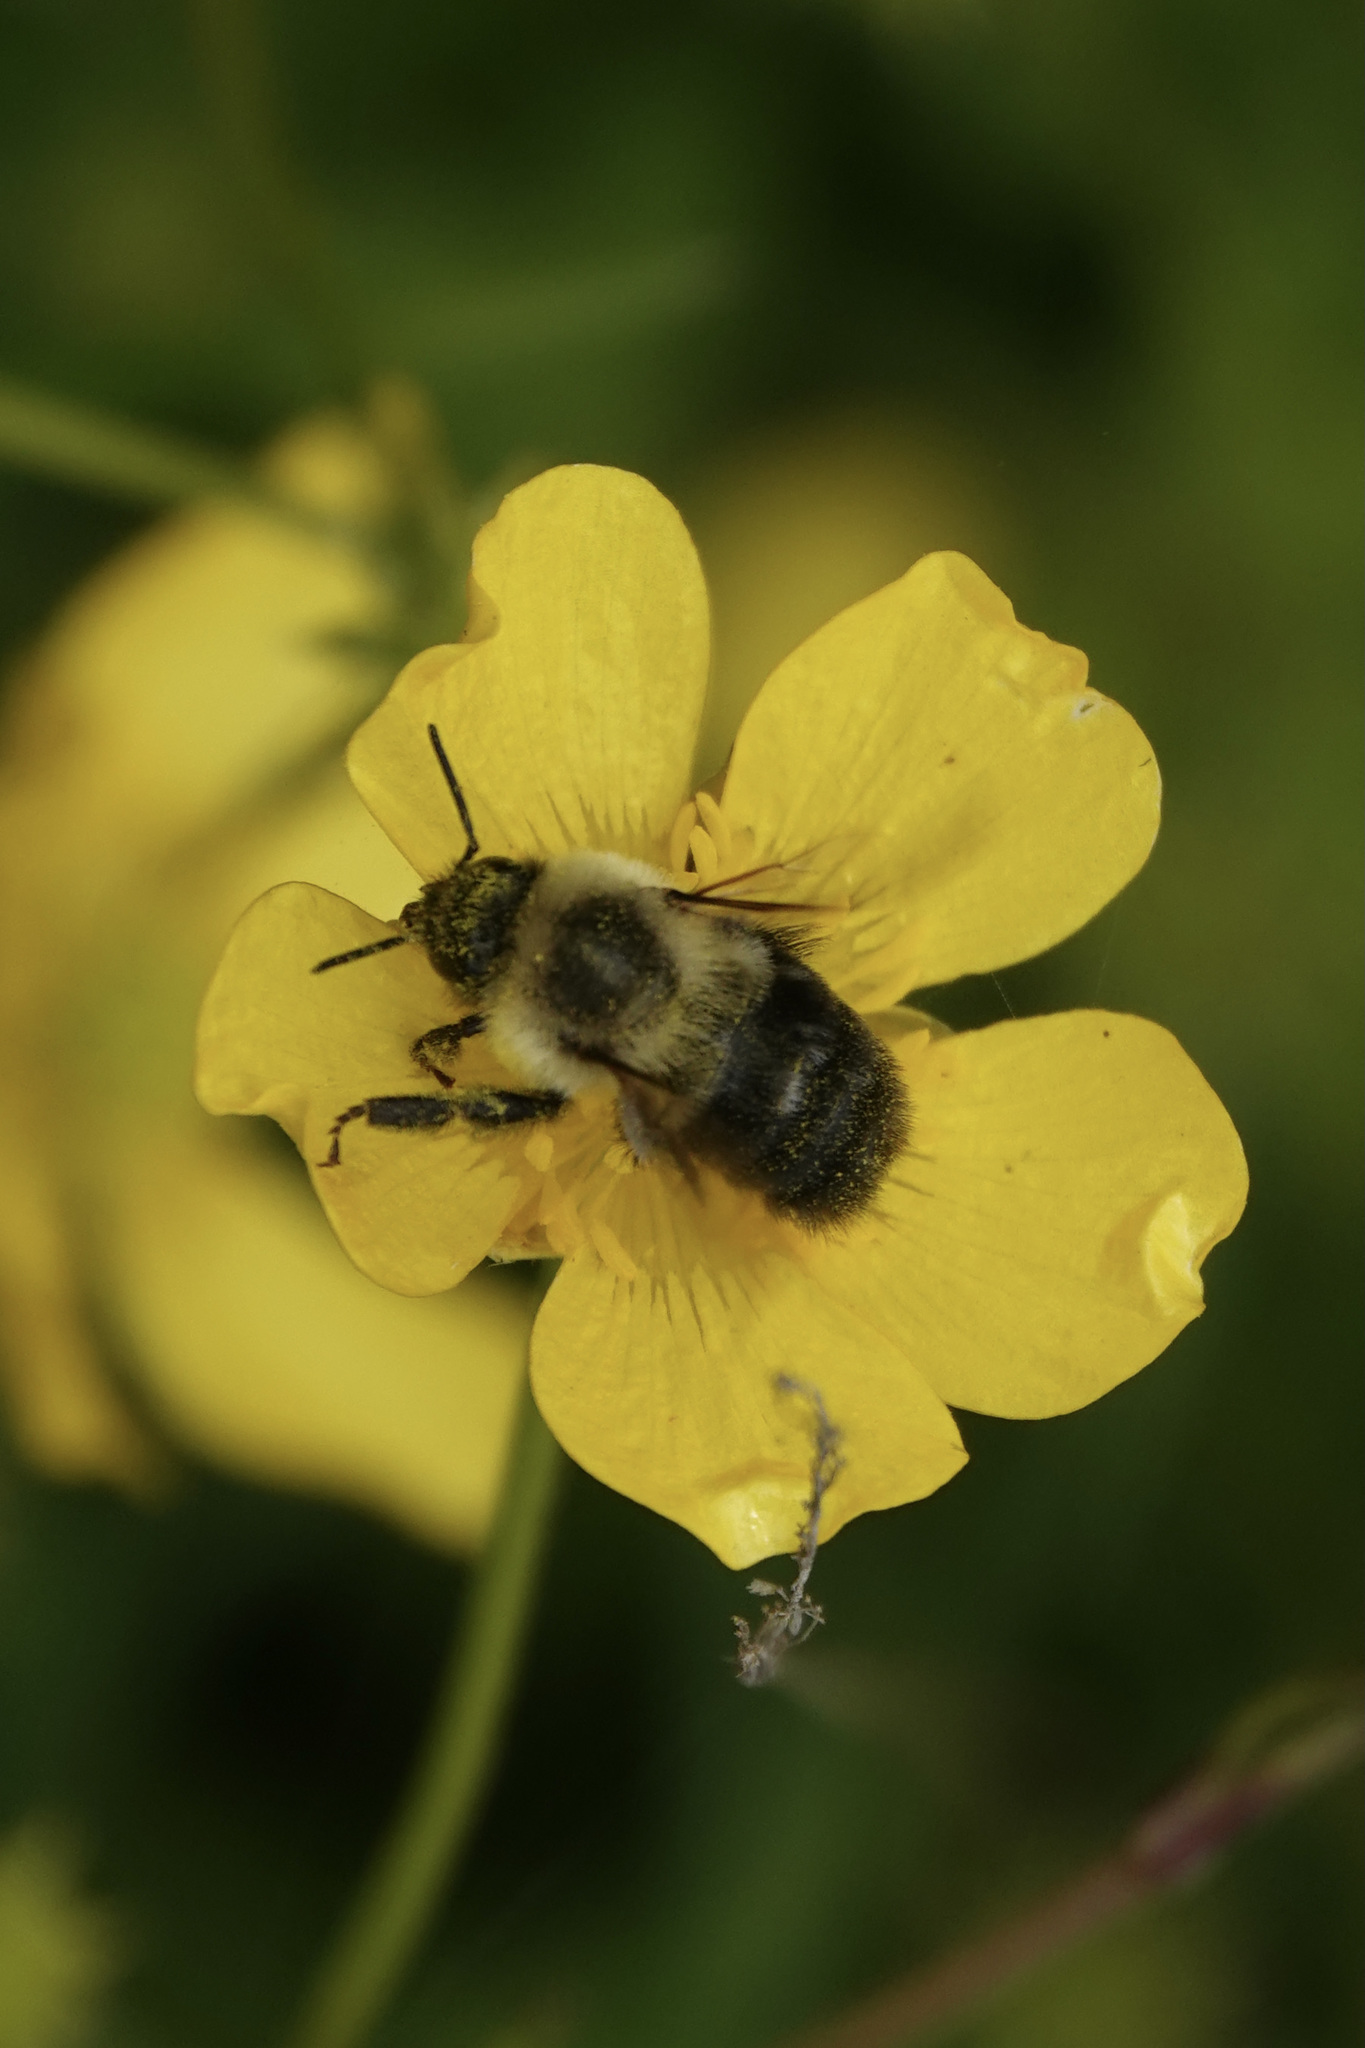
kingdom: Animalia
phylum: Arthropoda
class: Insecta
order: Hymenoptera
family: Apidae
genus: Bombus
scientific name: Bombus impatiens
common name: Common eastern bumble bee
